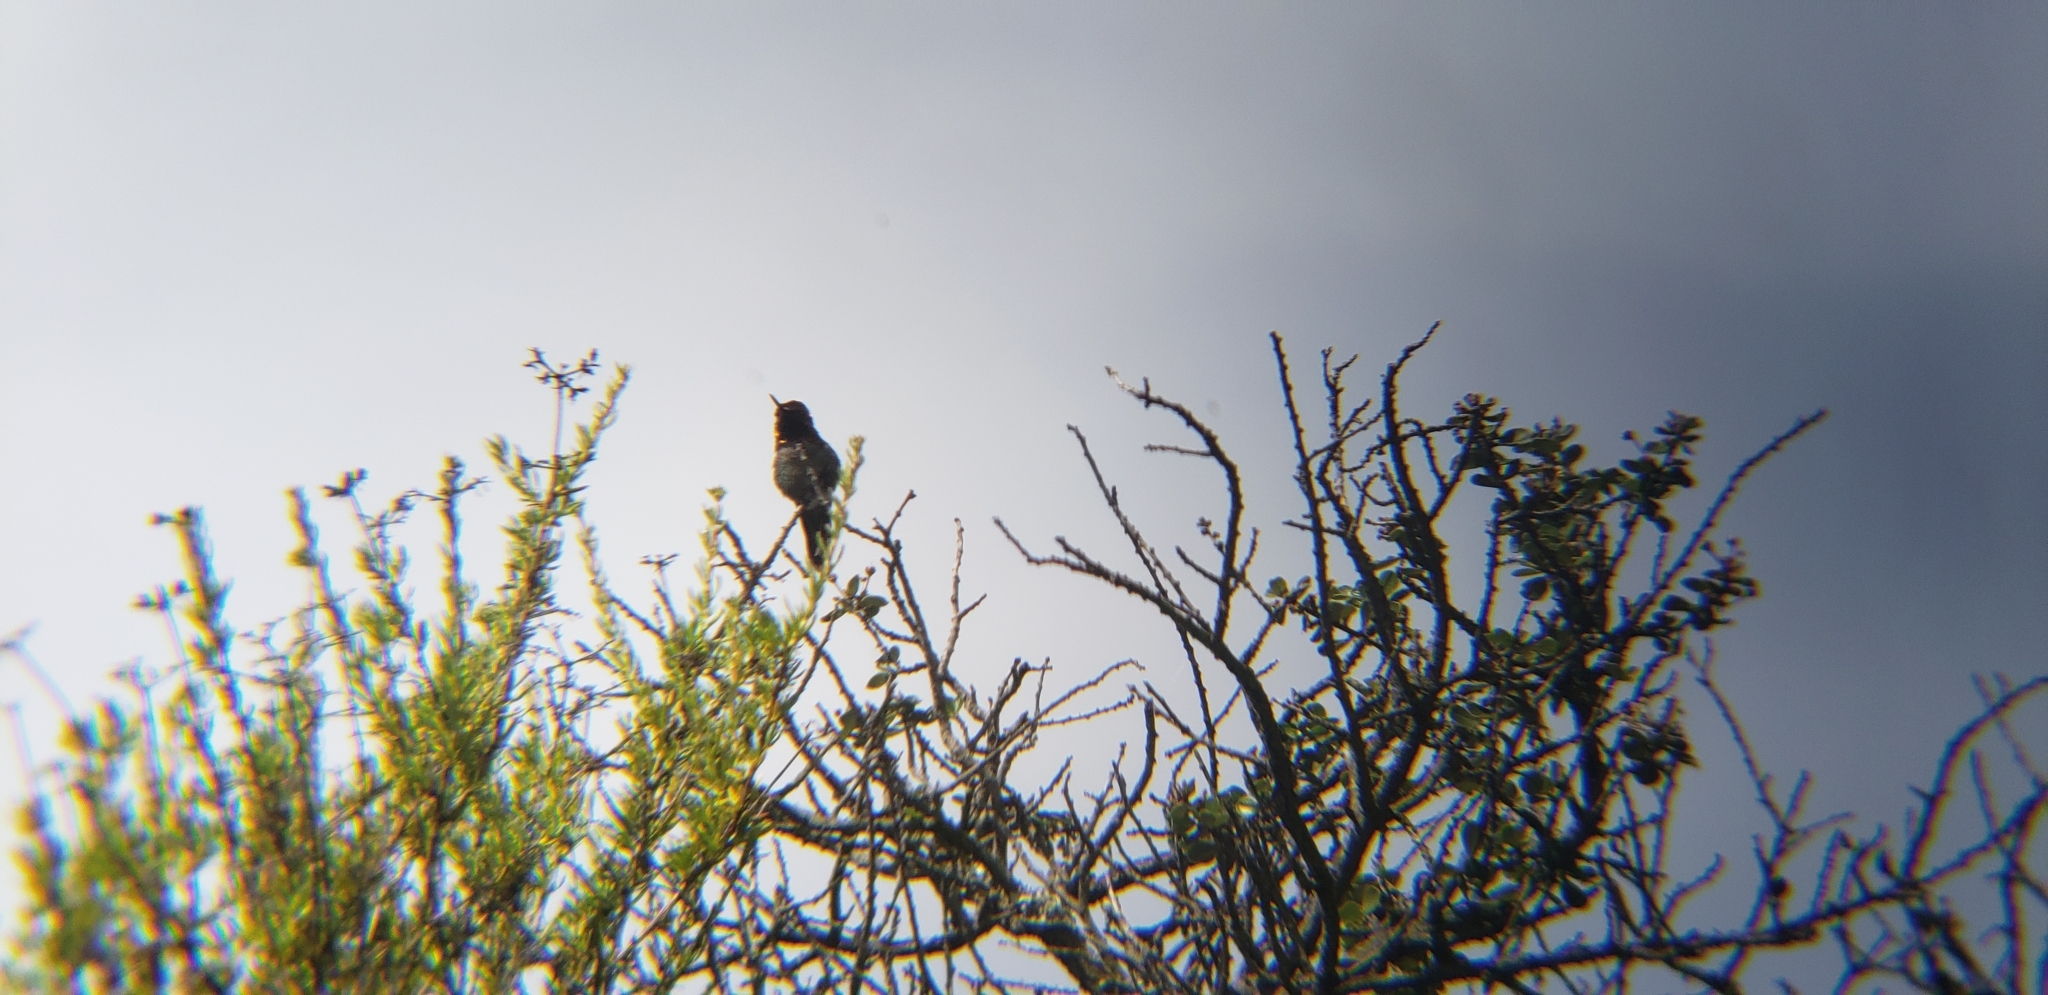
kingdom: Animalia
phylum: Chordata
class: Aves
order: Apodiformes
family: Trochilidae
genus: Calypte
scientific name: Calypte anna
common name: Anna's hummingbird
